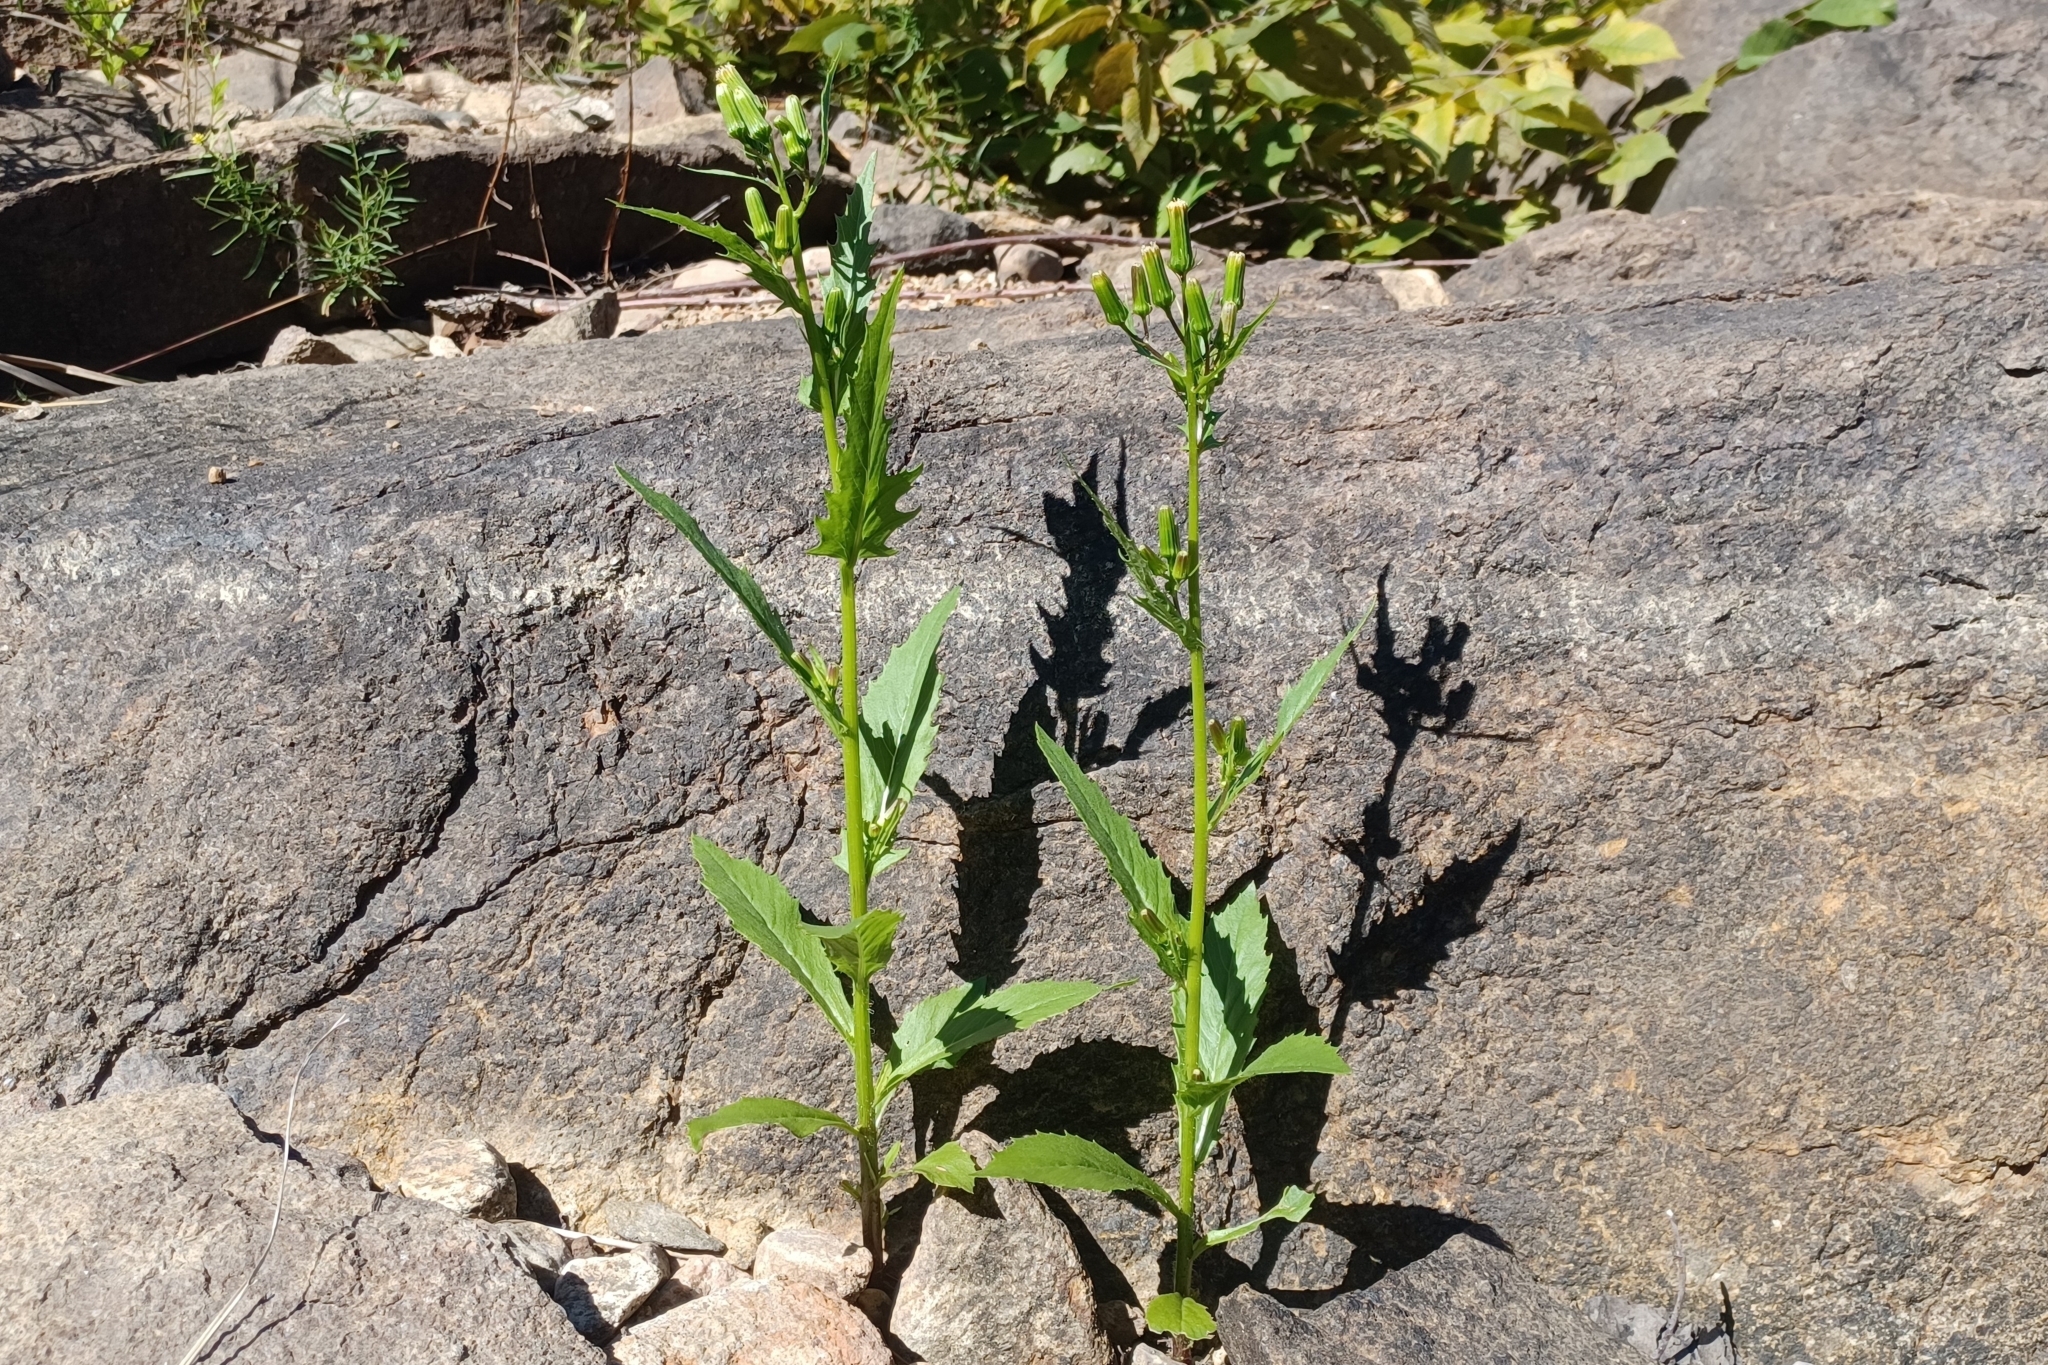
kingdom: Plantae
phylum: Tracheophyta
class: Magnoliopsida
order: Asterales
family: Asteraceae
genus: Erechtites
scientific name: Erechtites hieraciifolius
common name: American burnweed
